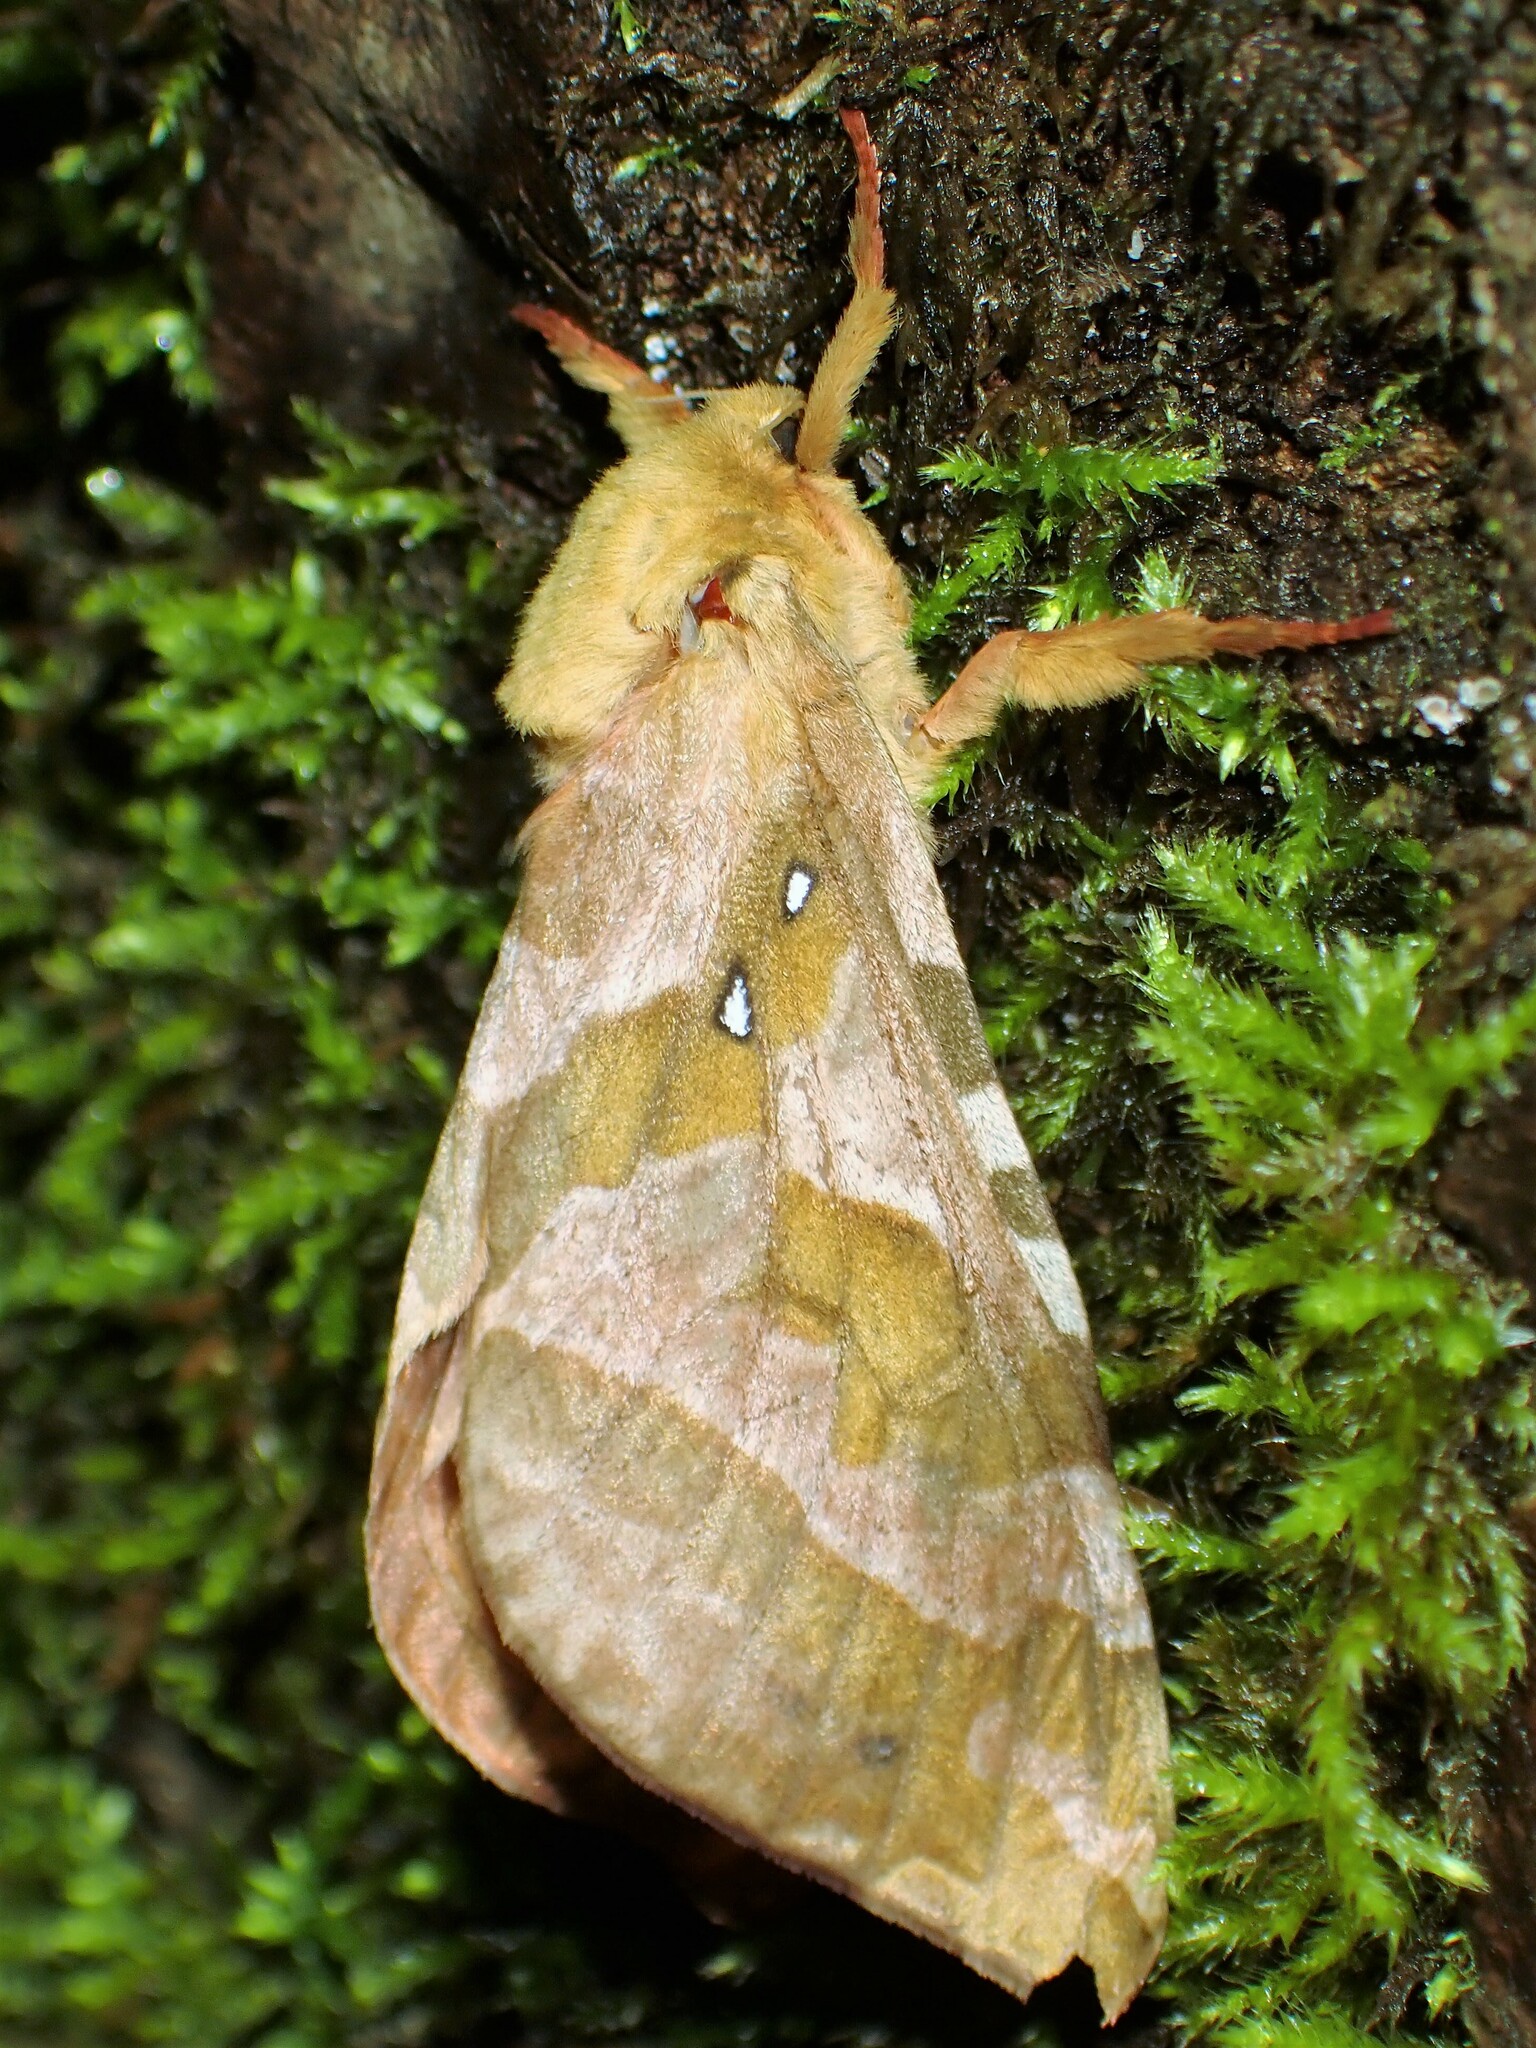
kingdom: Animalia
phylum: Arthropoda
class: Insecta
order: Lepidoptera
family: Hepialidae
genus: Sthenopis
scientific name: Sthenopis purpurascens
